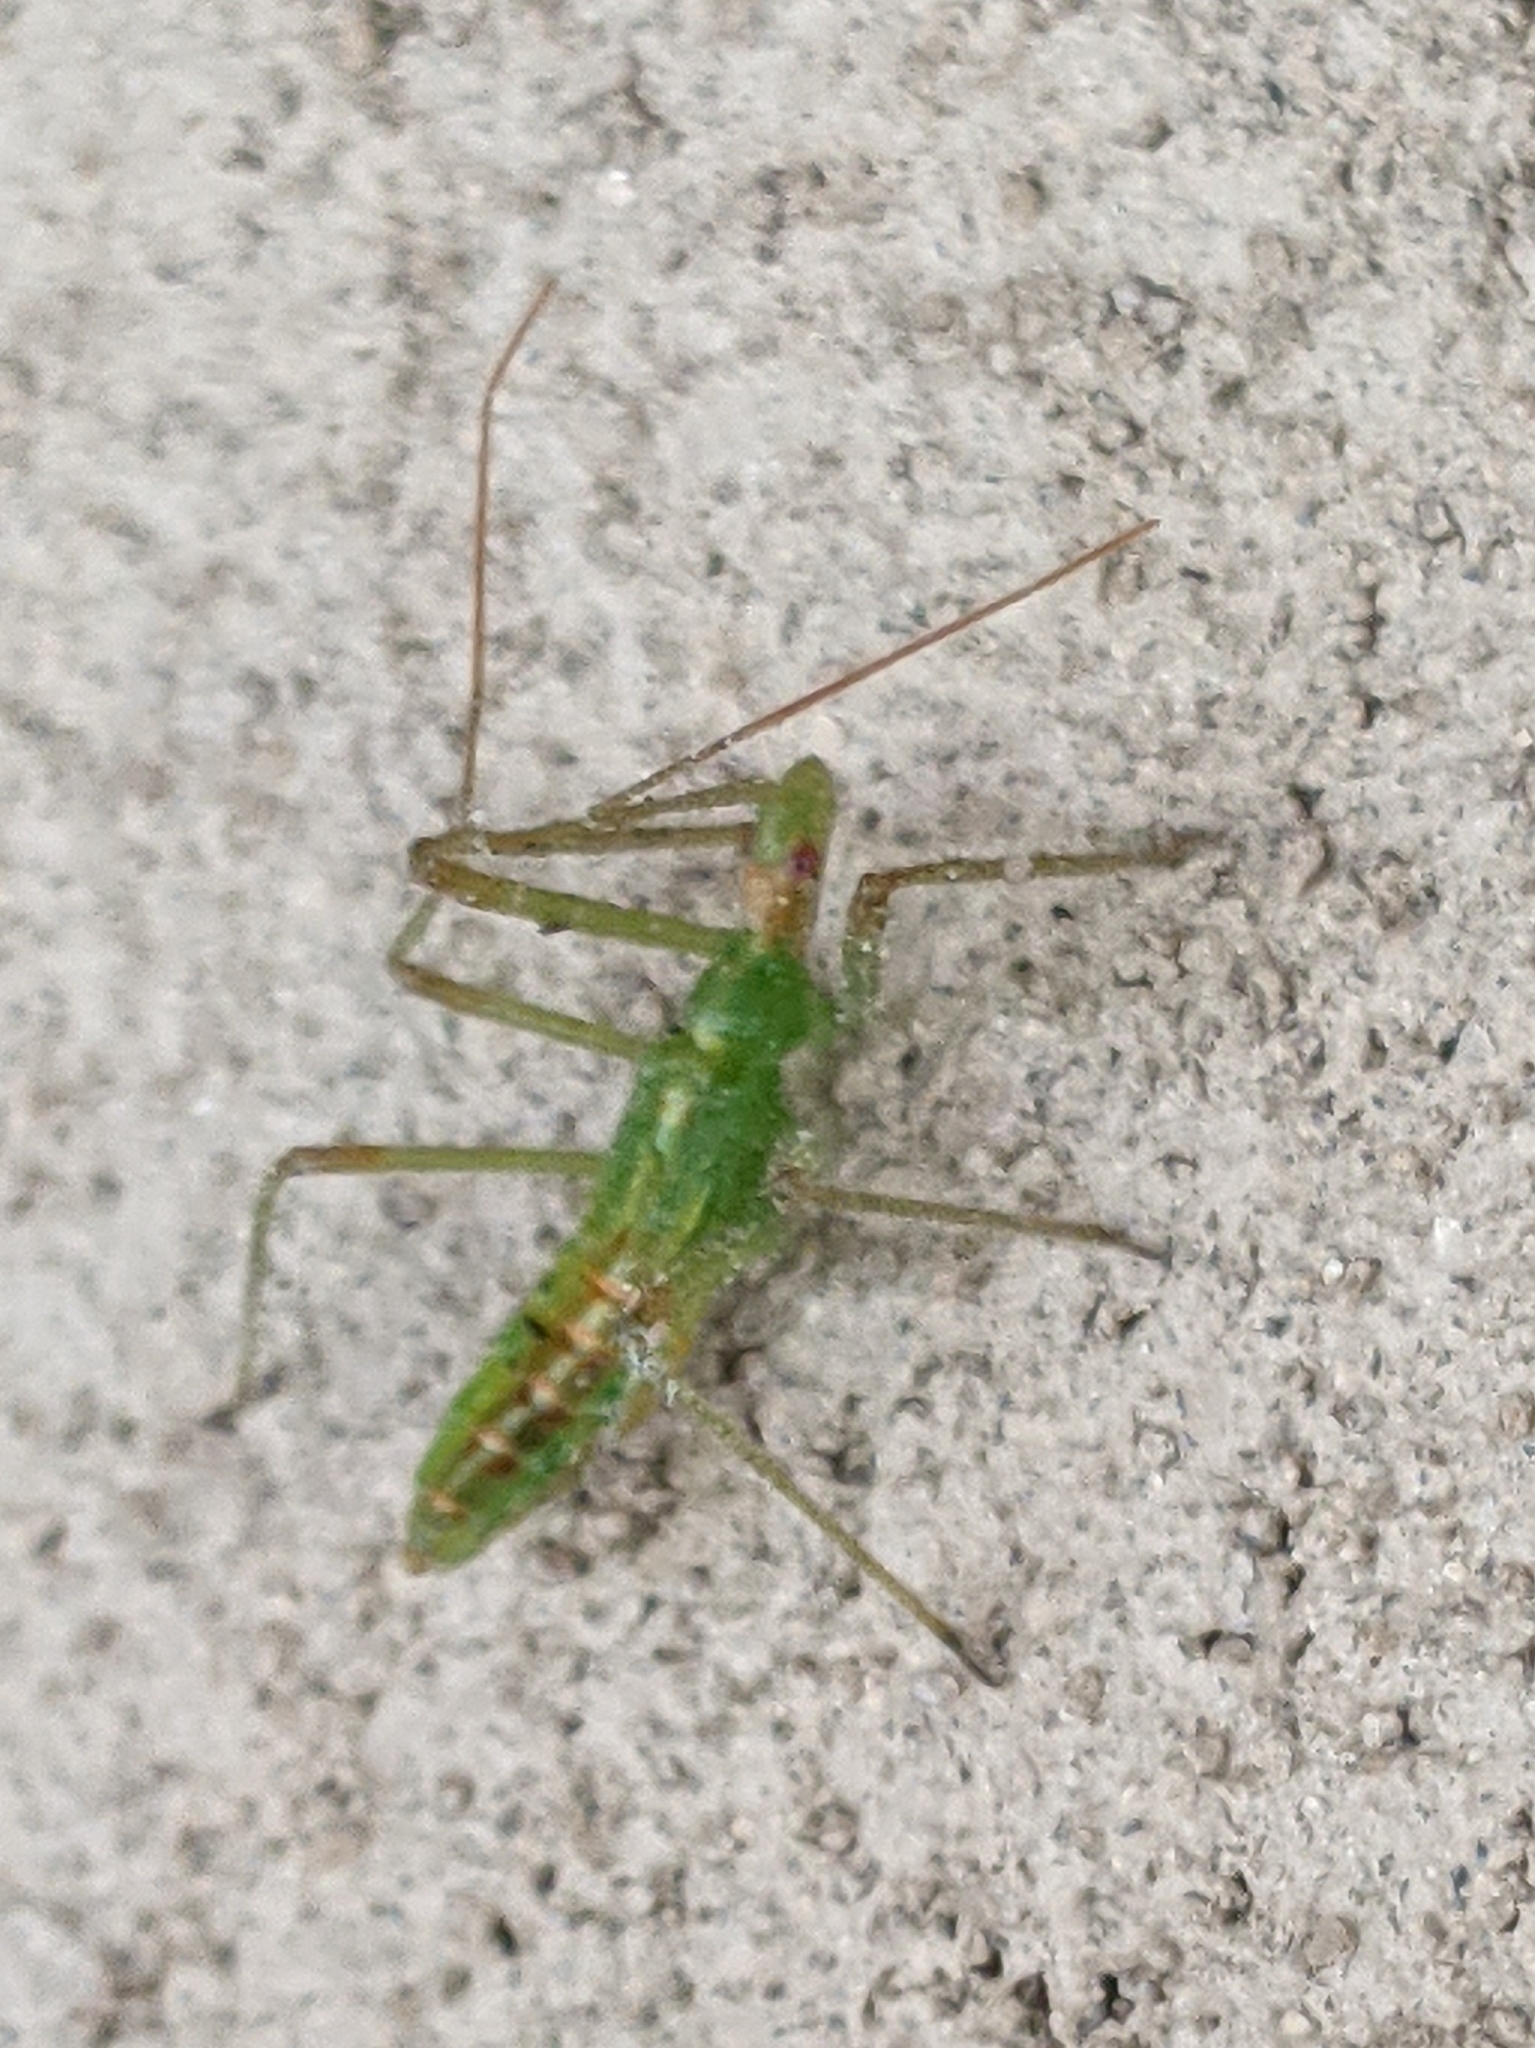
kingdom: Animalia
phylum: Arthropoda
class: Insecta
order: Hemiptera
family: Reduviidae
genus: Zelus
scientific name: Zelus luridus
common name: Pale green assassin bug
